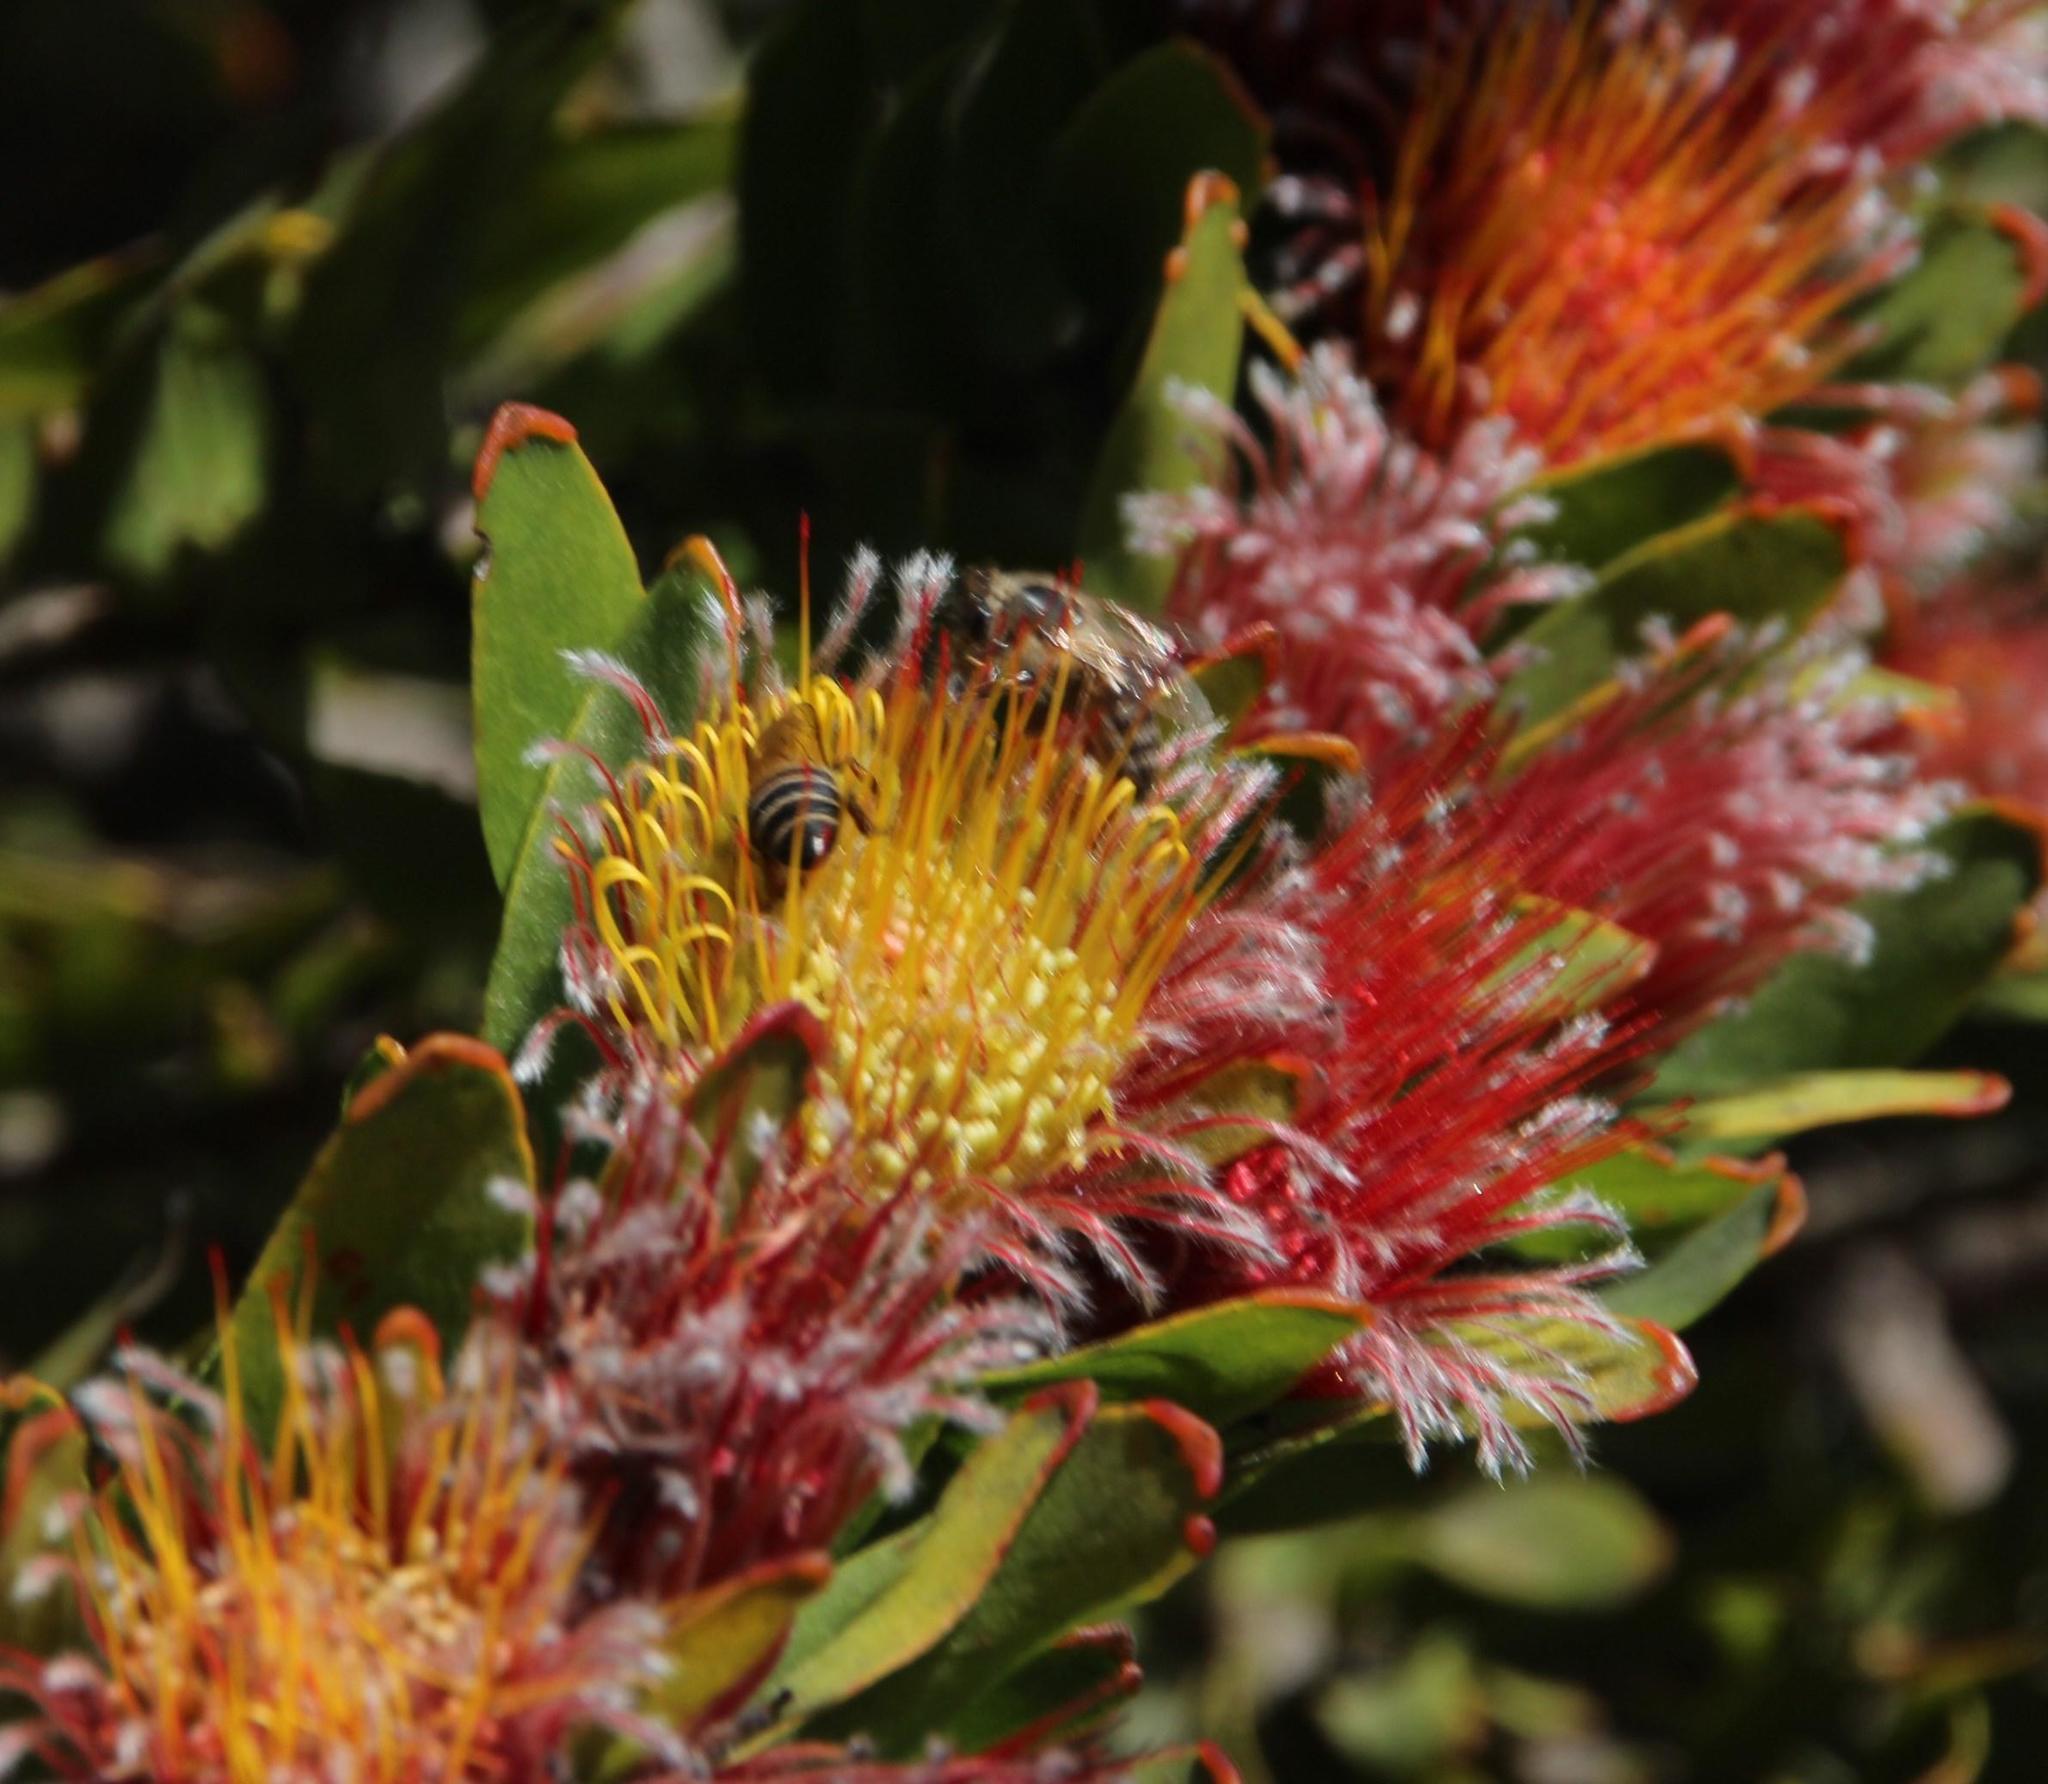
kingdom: Animalia
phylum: Arthropoda
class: Insecta
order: Hymenoptera
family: Apidae
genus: Apis
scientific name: Apis mellifera
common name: Honey bee
